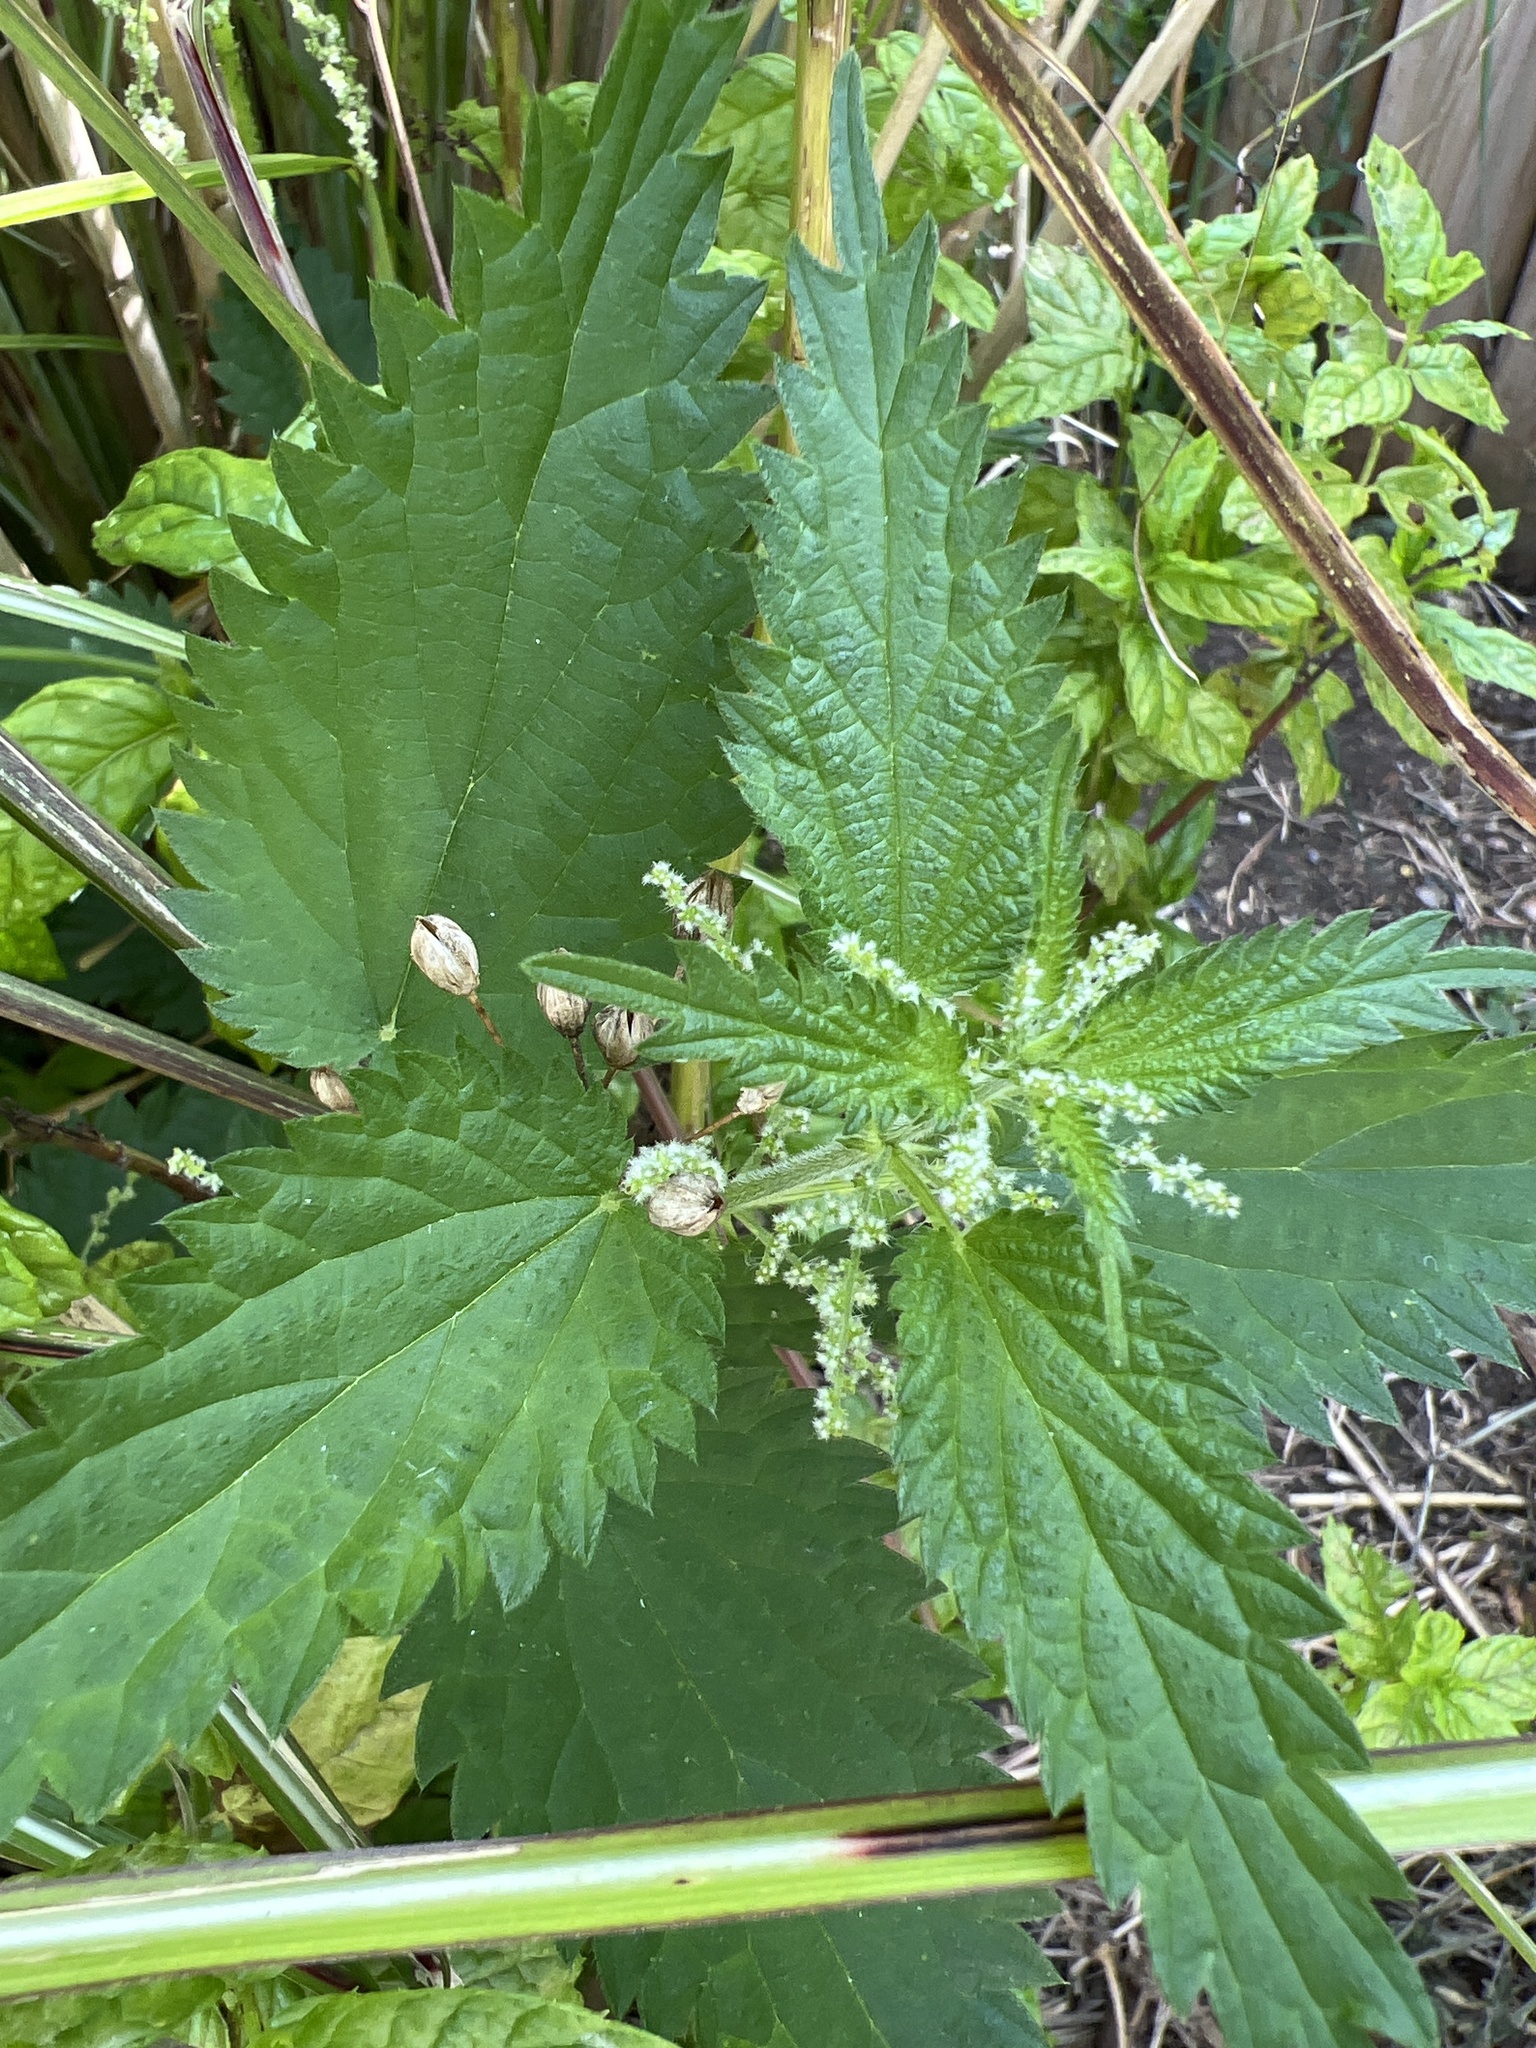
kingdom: Plantae
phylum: Tracheophyta
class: Magnoliopsida
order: Rosales
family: Urticaceae
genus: Urtica
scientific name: Urtica dioica
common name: Common nettle
